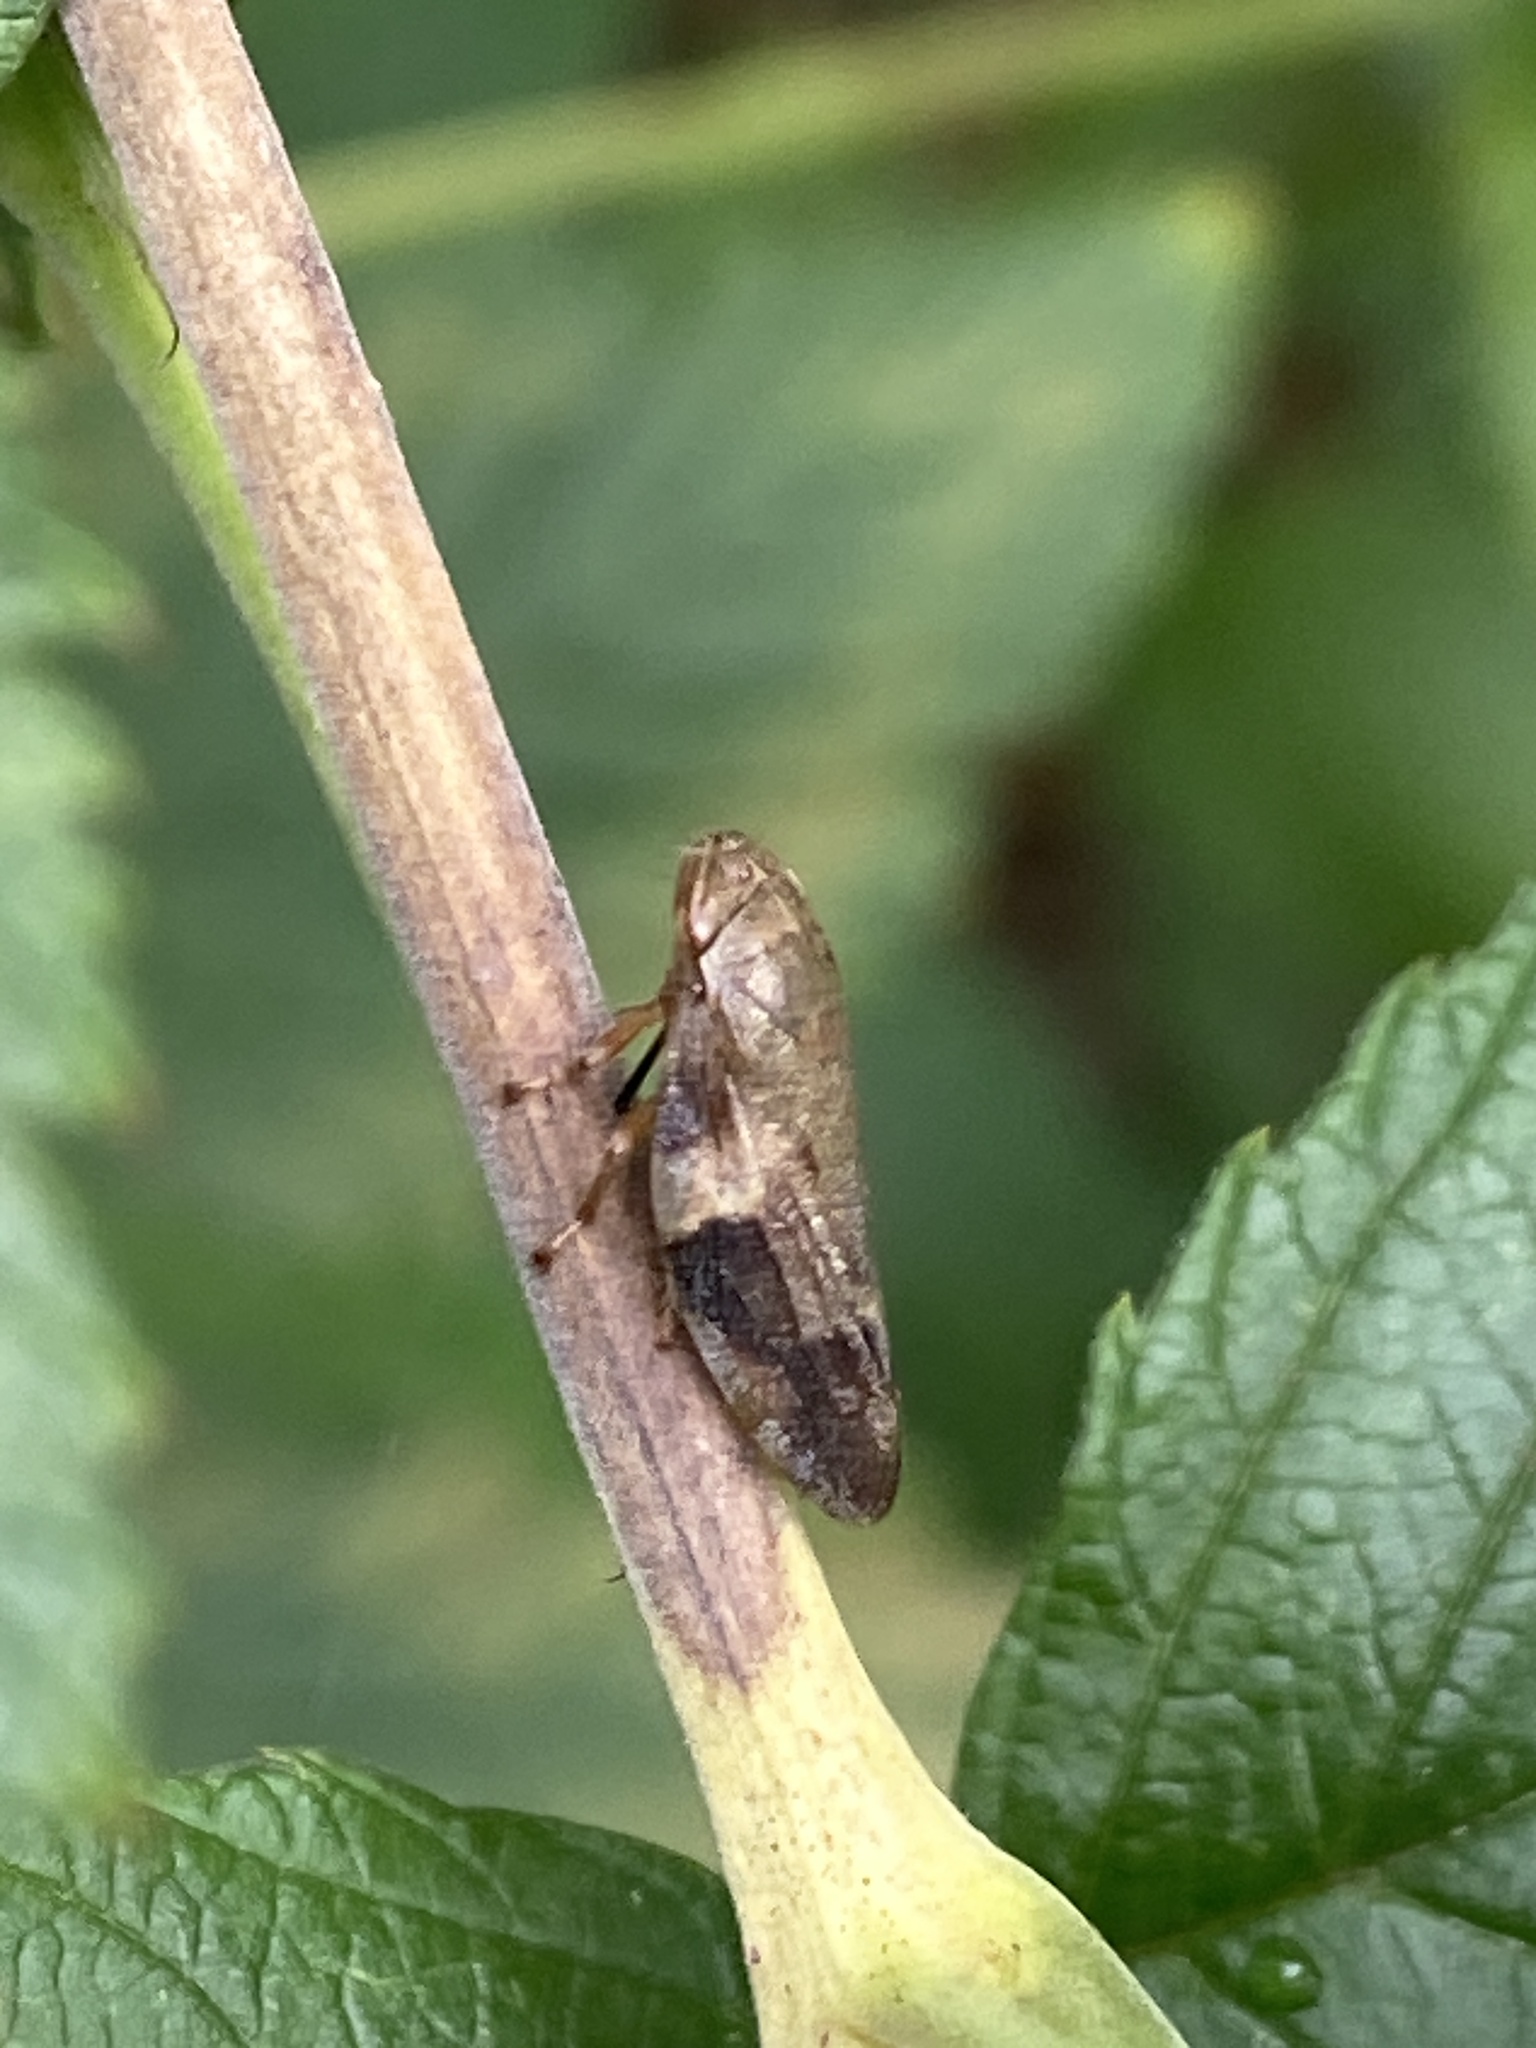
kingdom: Animalia
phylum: Arthropoda
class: Insecta
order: Hemiptera
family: Aphrophoridae
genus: Aphrophora
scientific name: Aphrophora alni
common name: European alder spittlebug
